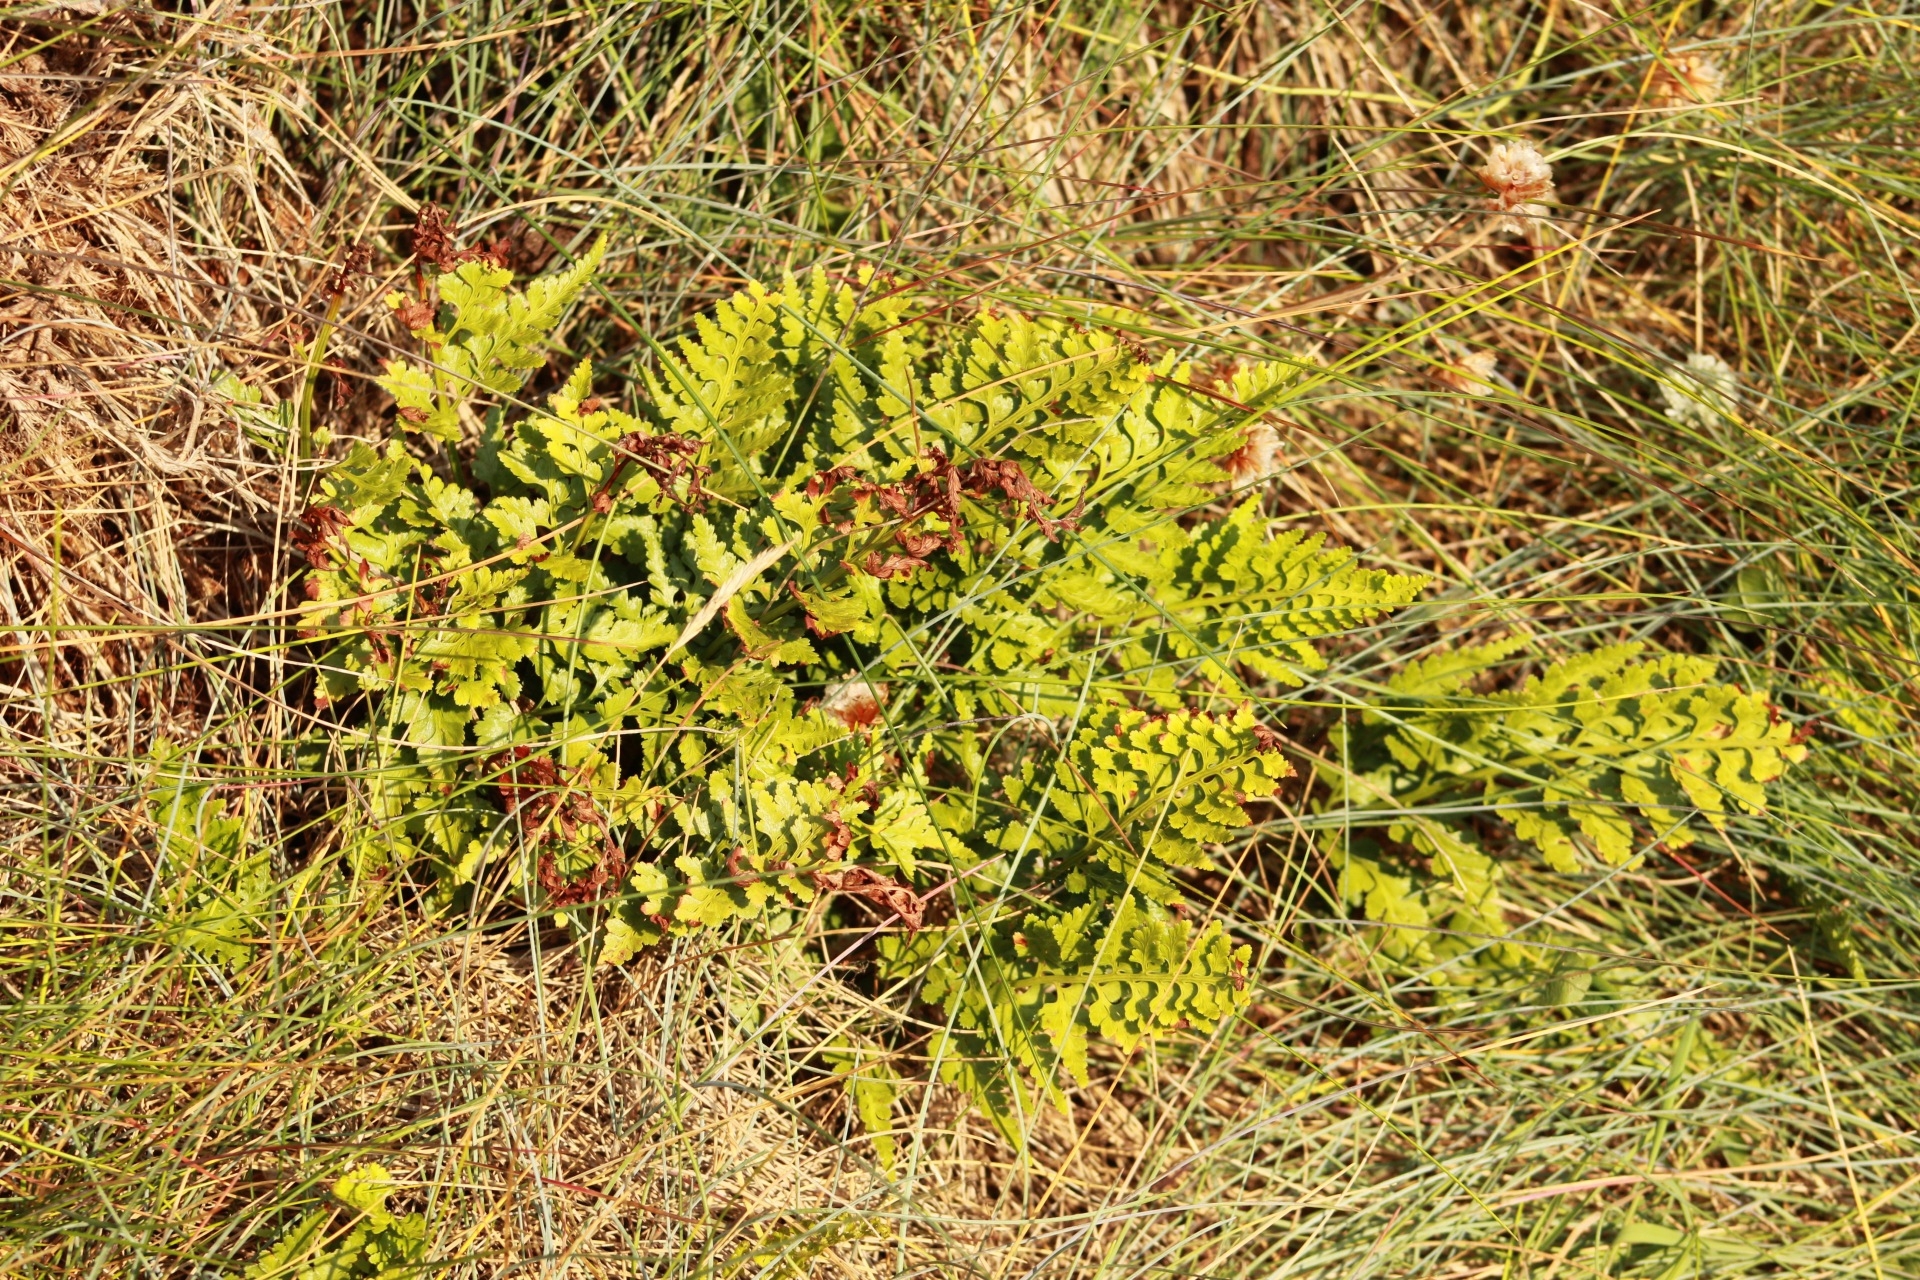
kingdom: Plantae
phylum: Tracheophyta
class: Polypodiopsida
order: Polypodiales
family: Aspleniaceae
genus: Asplenium
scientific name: Asplenium marinum
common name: Sea spleenwort
